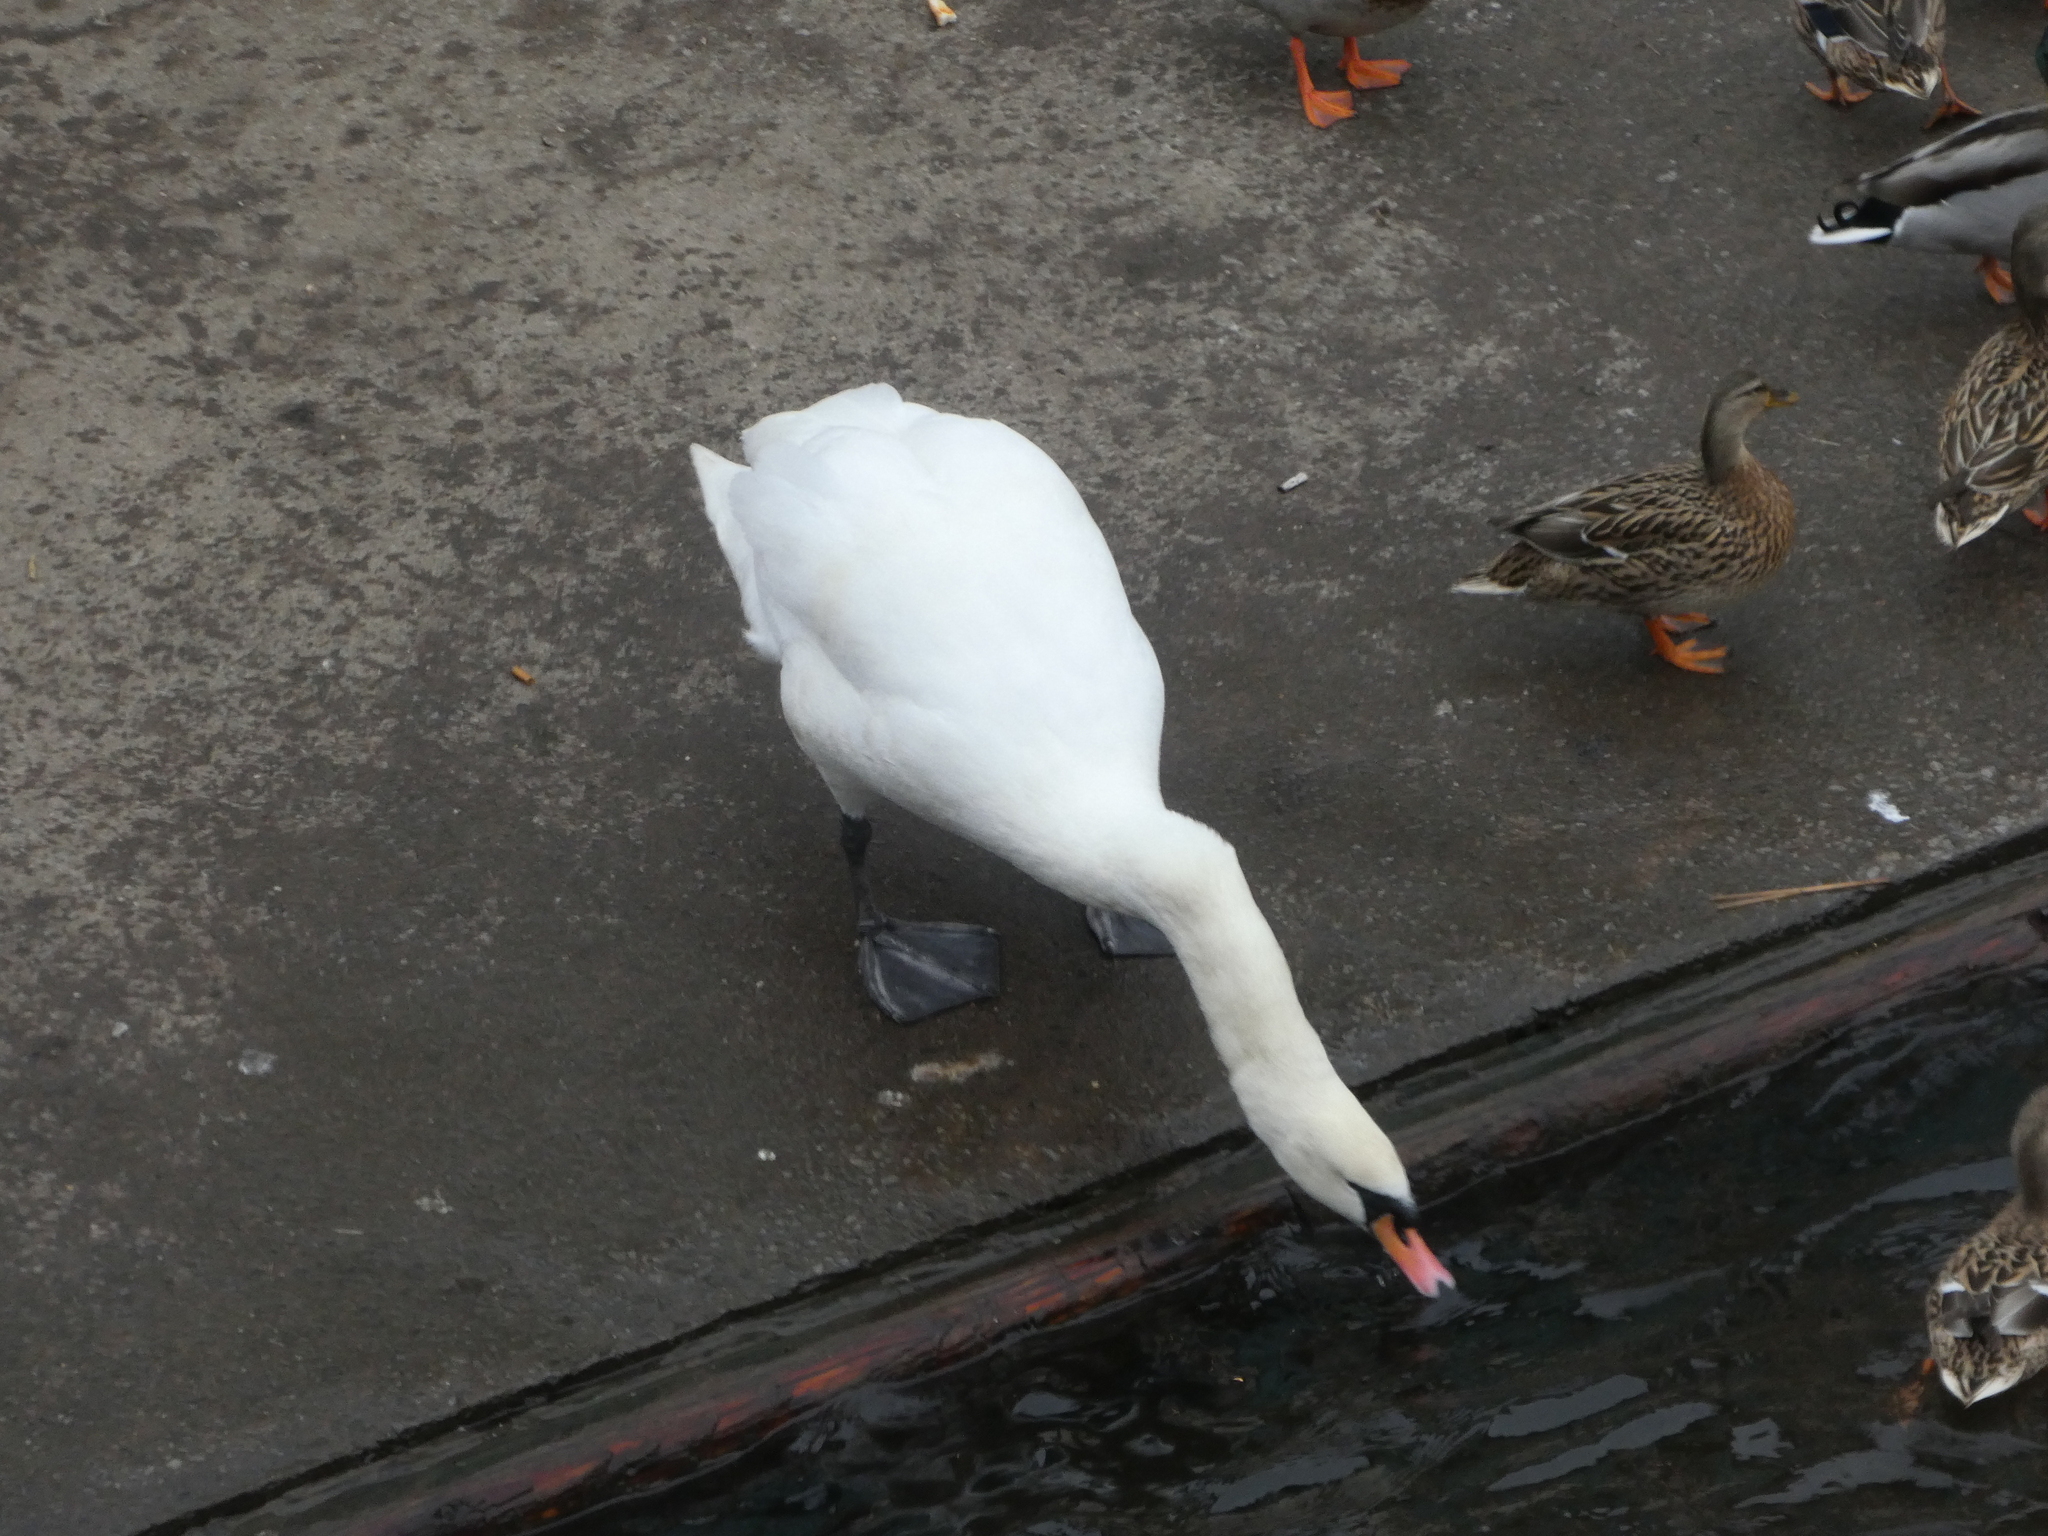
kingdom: Animalia
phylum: Chordata
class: Aves
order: Anseriformes
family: Anatidae
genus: Cygnus
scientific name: Cygnus olor
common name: Mute swan
